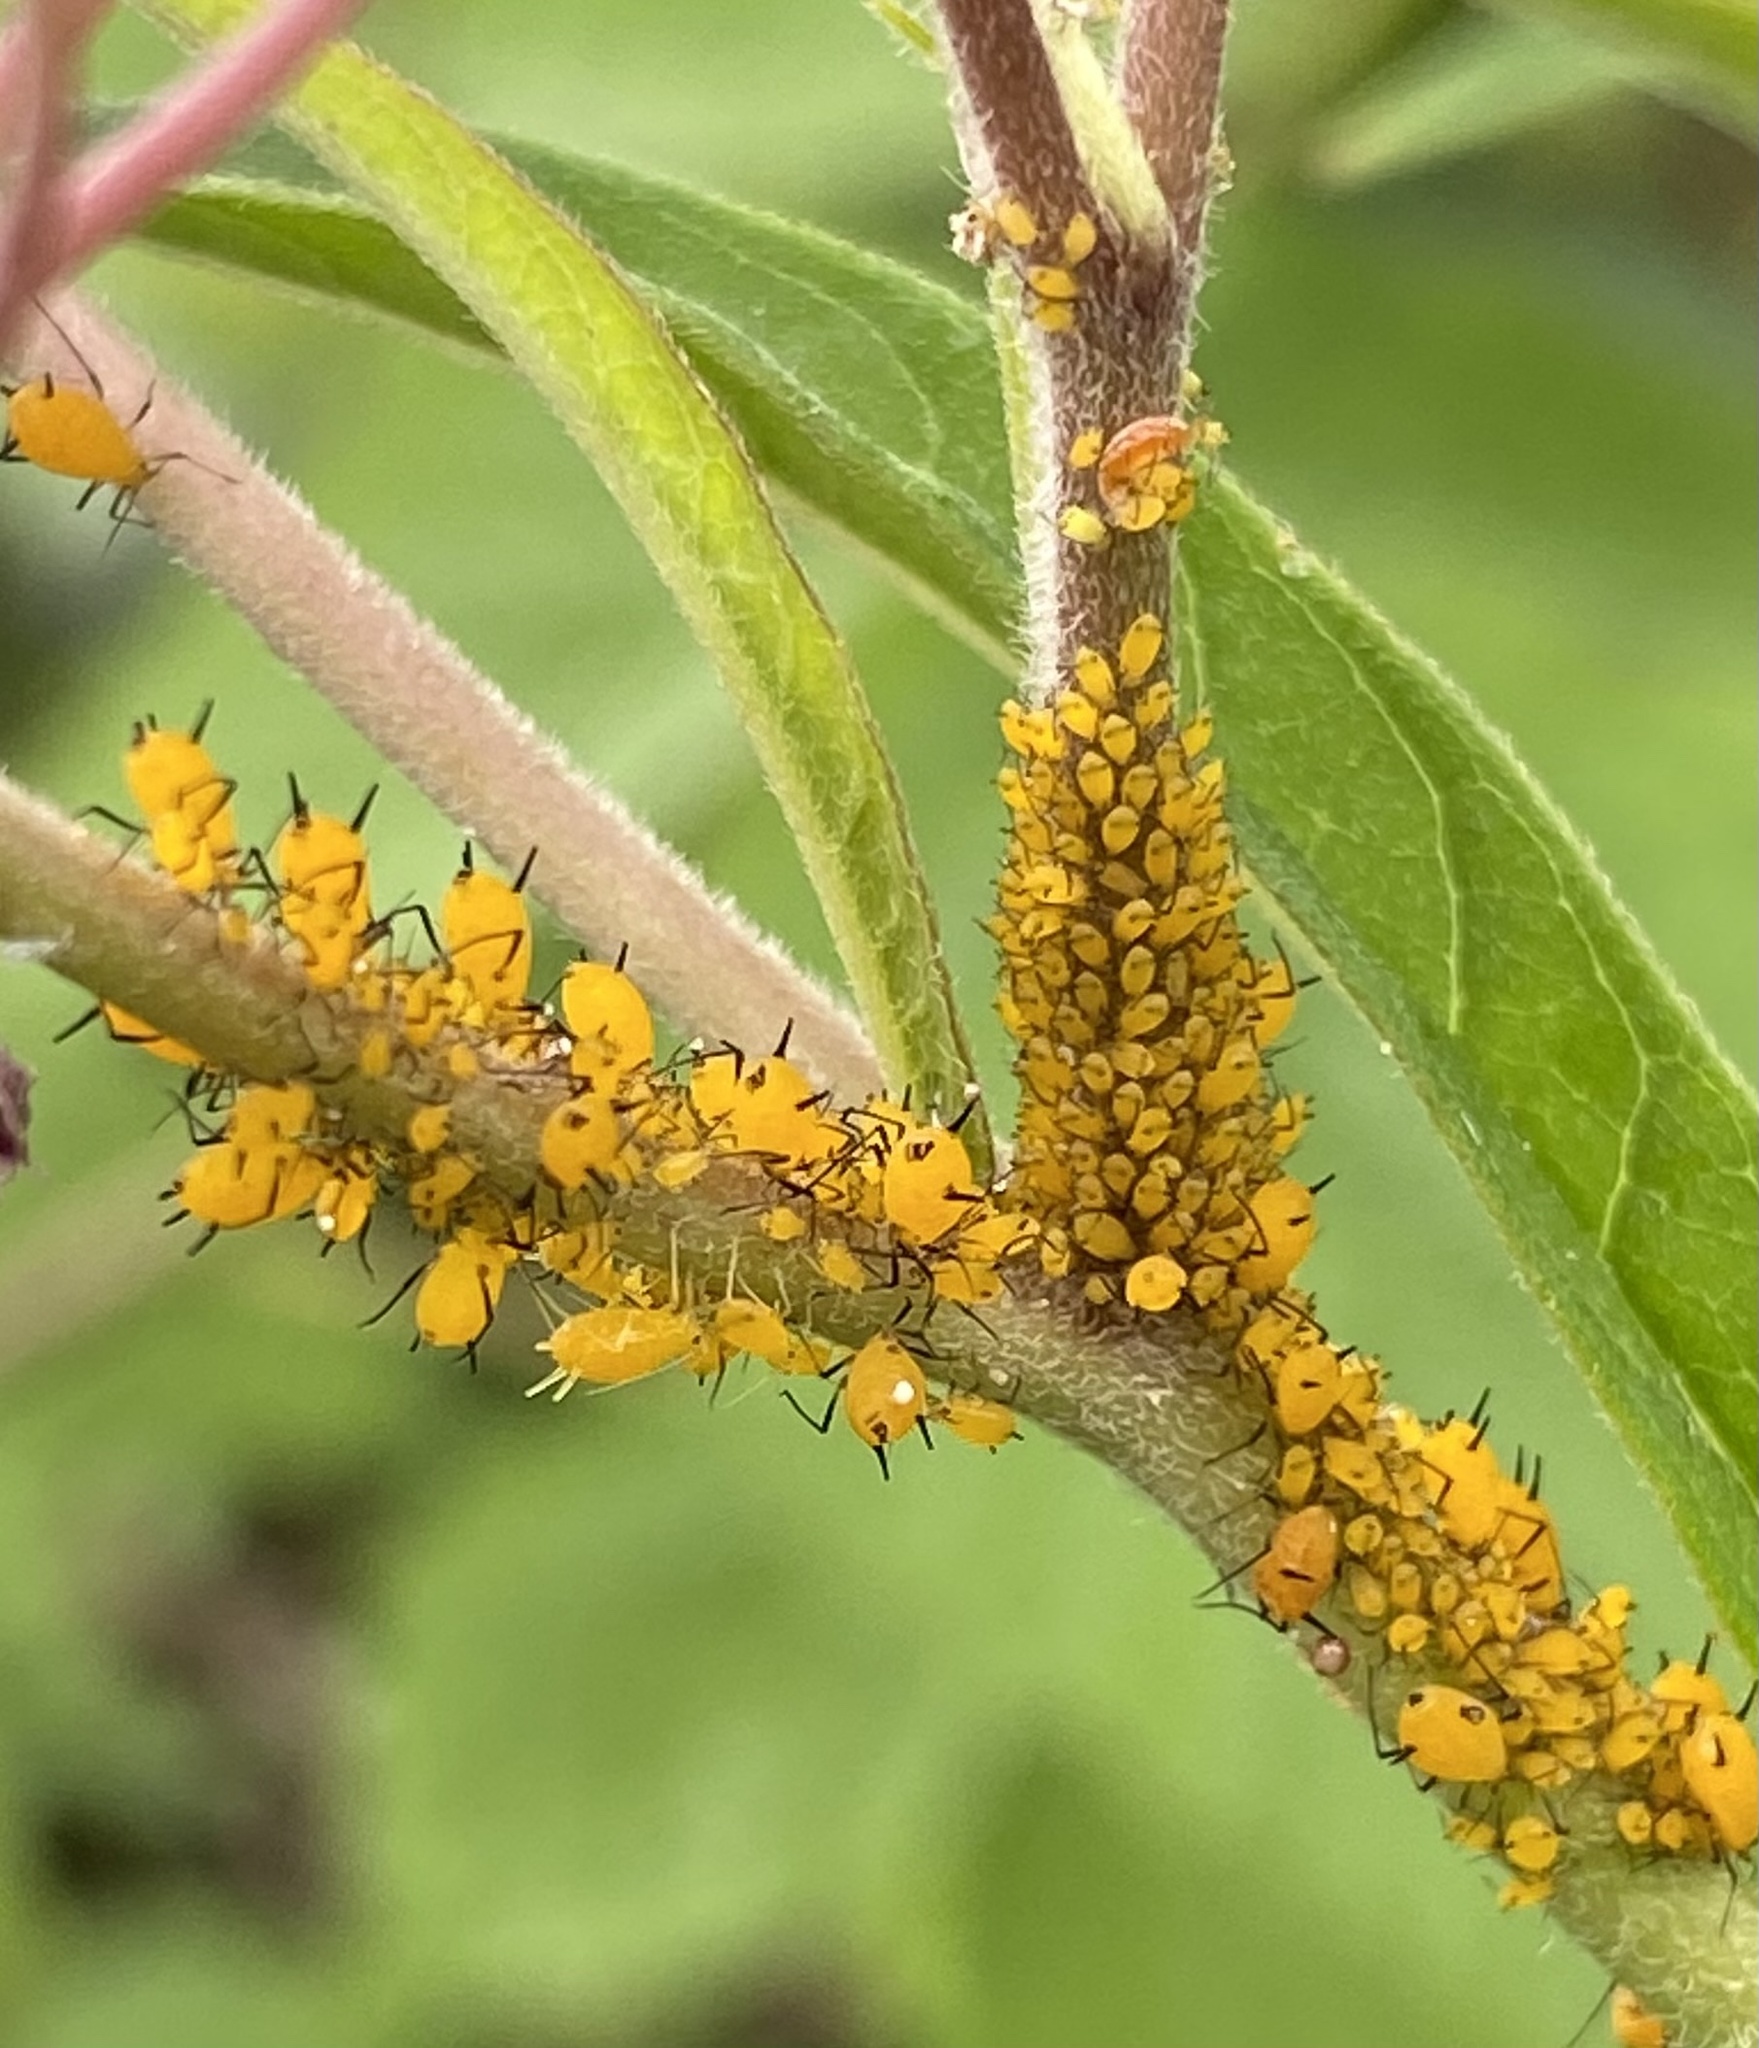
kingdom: Animalia
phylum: Arthropoda
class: Insecta
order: Hemiptera
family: Aphididae
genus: Aphis
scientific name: Aphis nerii
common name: Oleander aphid
